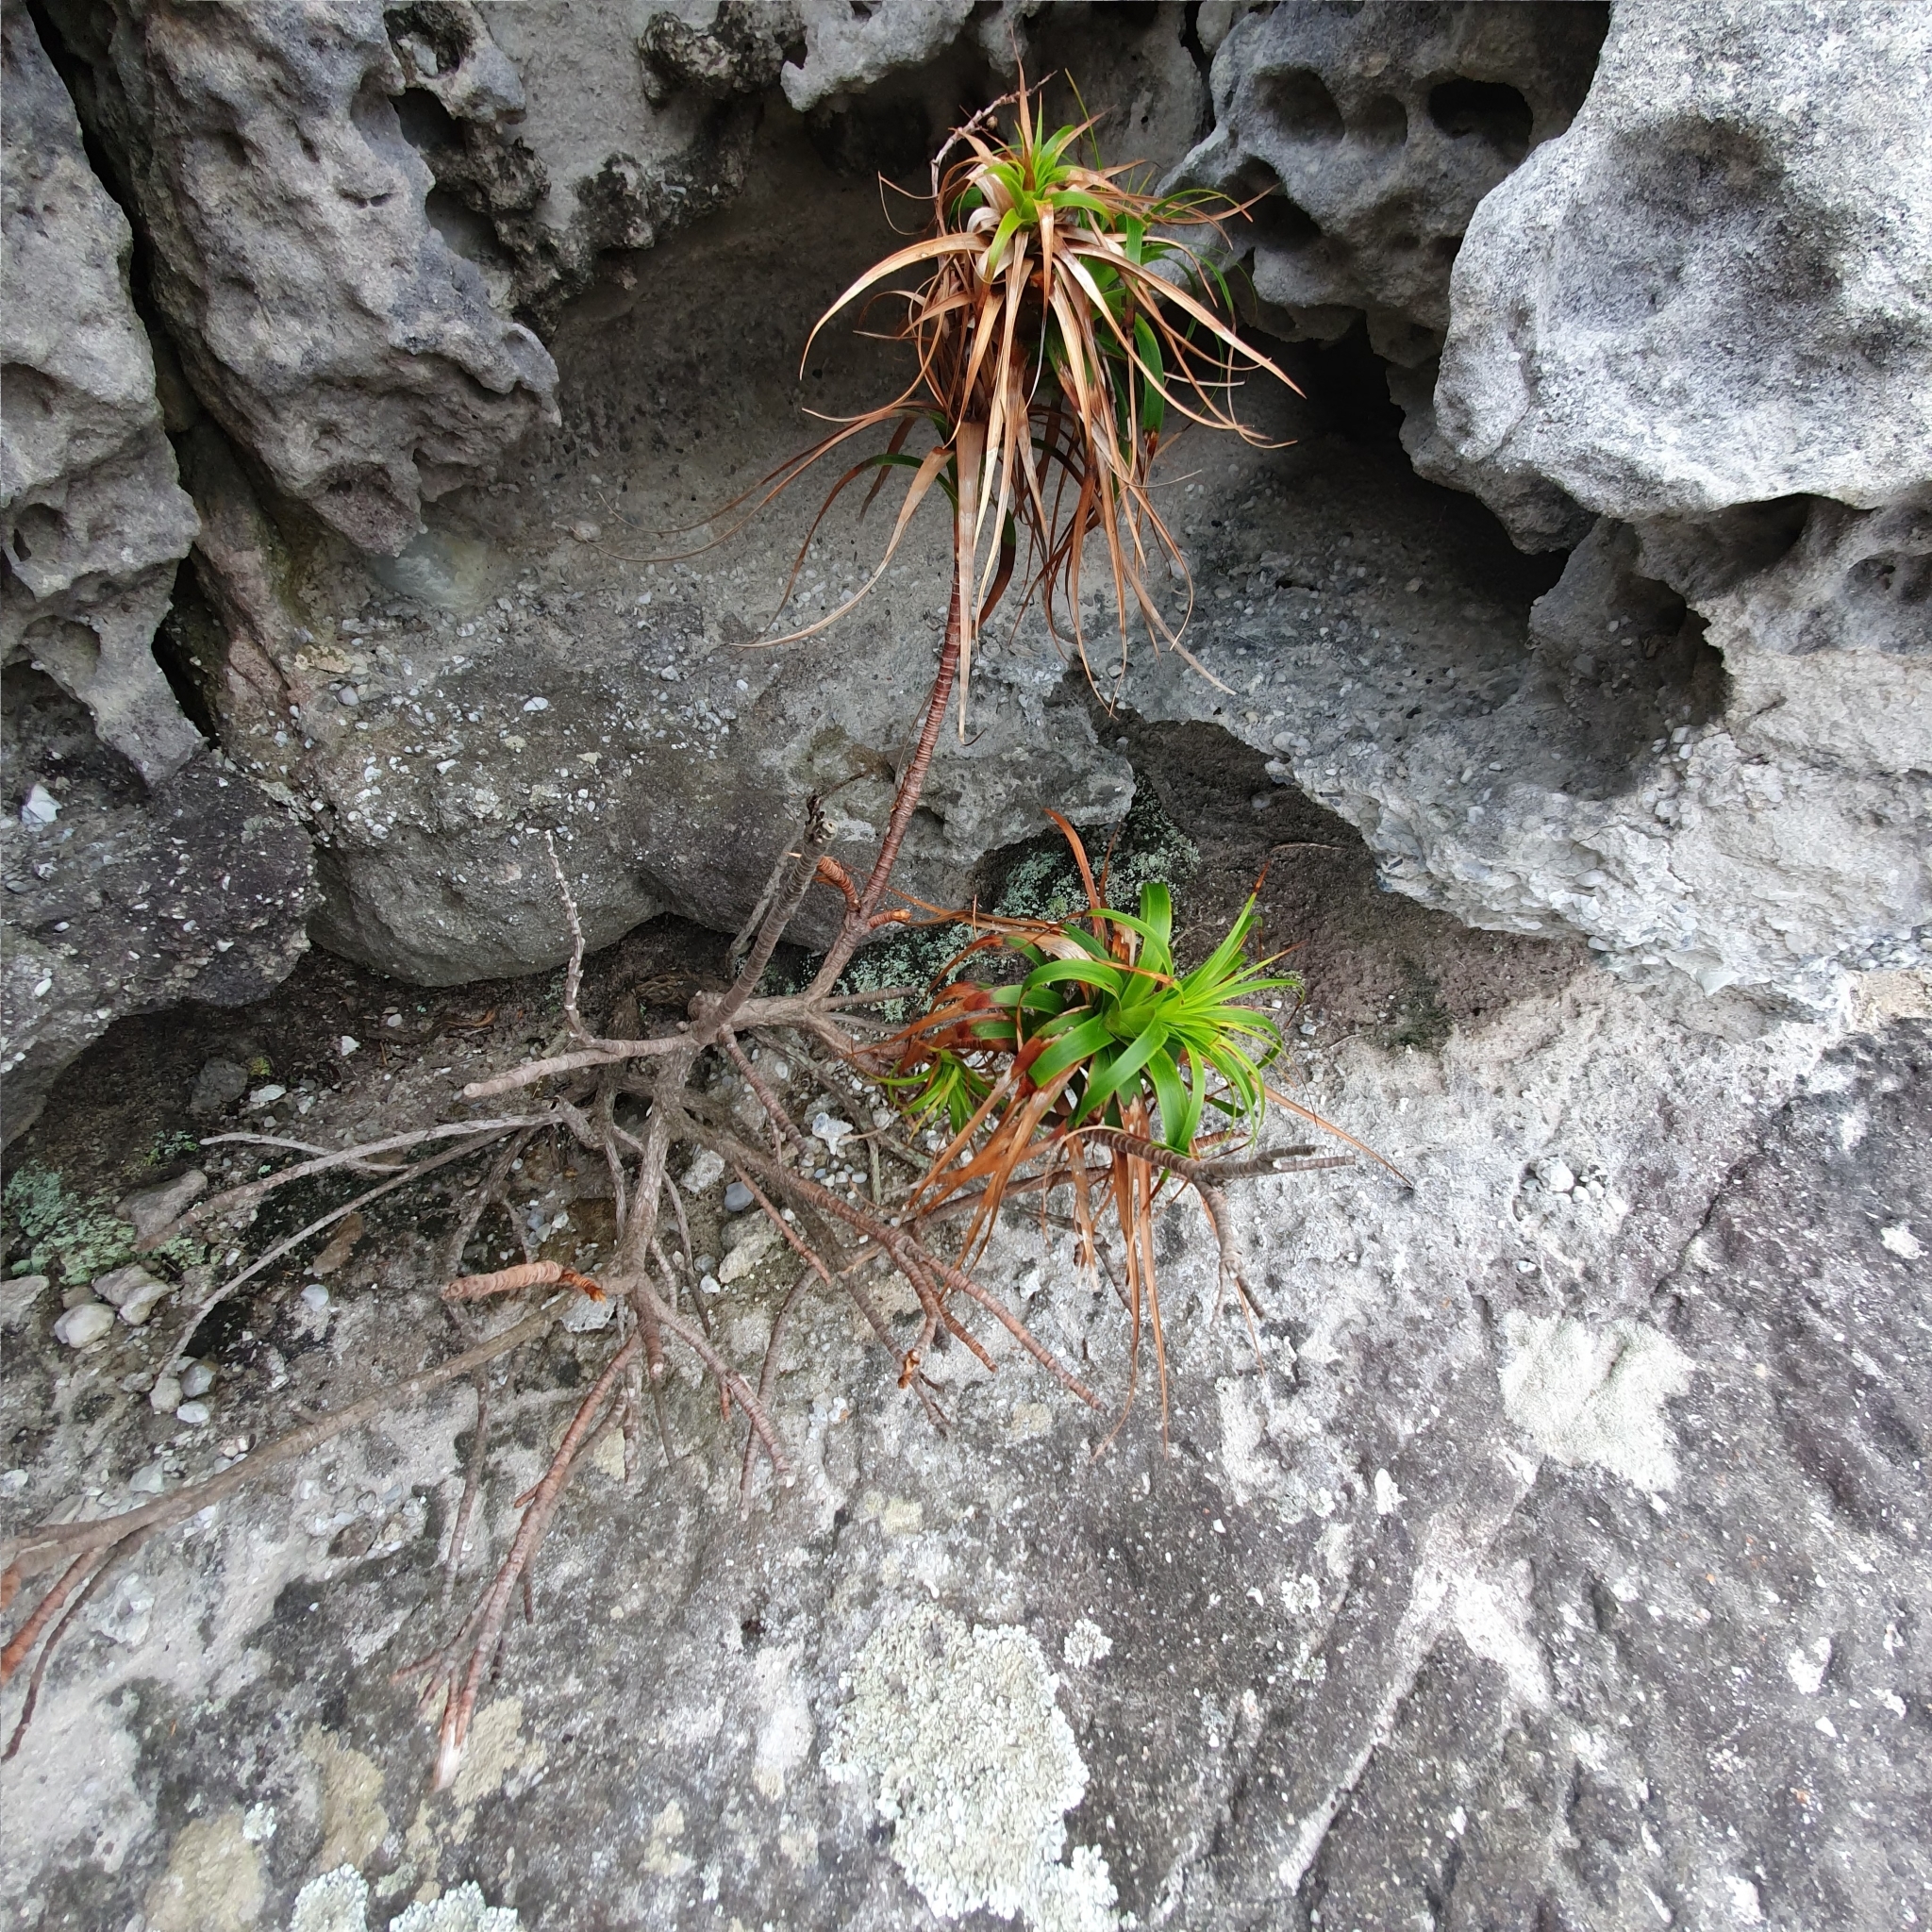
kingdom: Plantae
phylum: Tracheophyta
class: Magnoliopsida
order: Ericales
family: Ericaceae
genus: Dracophyllum
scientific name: Dracophyllum oceanicum
